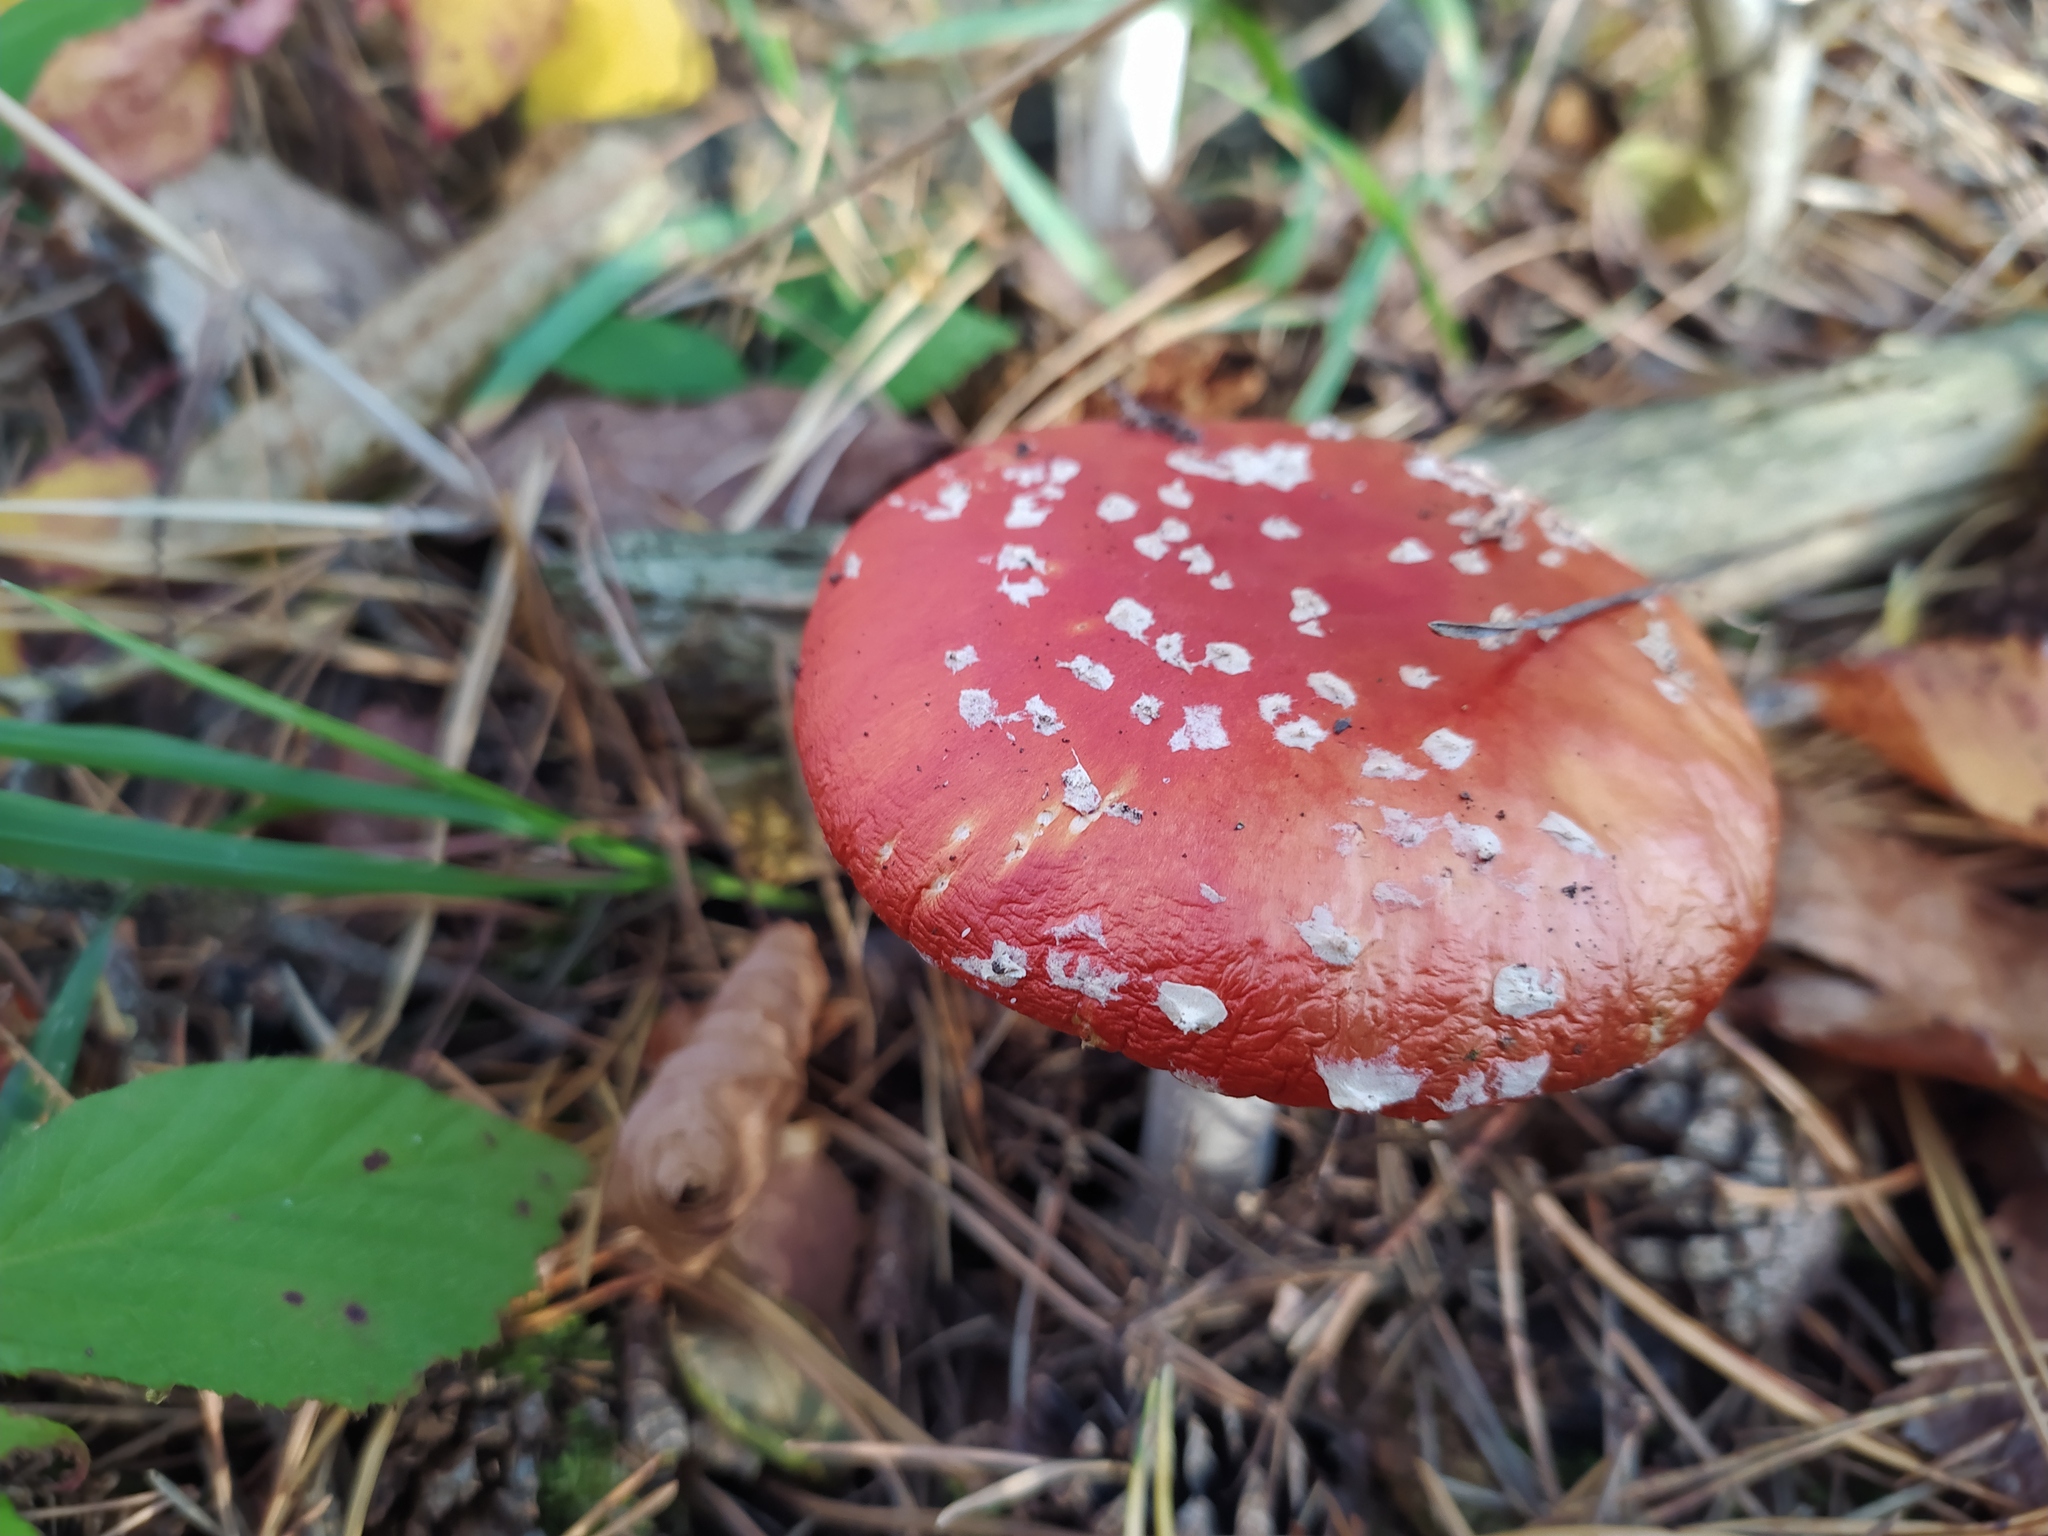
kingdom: Fungi
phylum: Basidiomycota
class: Agaricomycetes
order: Agaricales
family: Amanitaceae
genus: Amanita
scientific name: Amanita muscaria
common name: Fly agaric
